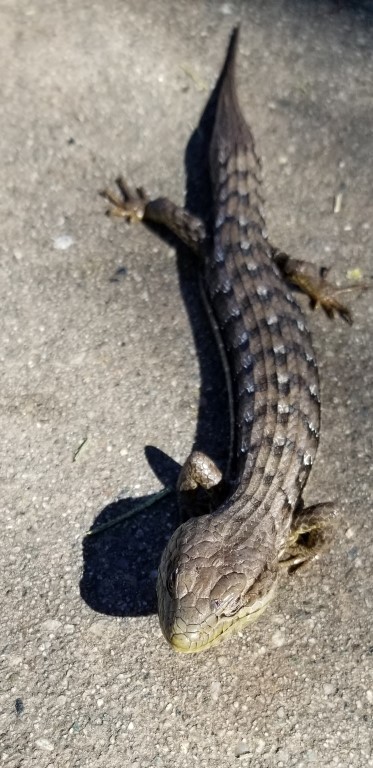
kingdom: Animalia
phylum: Chordata
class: Squamata
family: Anguidae
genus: Elgaria
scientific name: Elgaria multicarinata
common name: Southern alligator lizard
